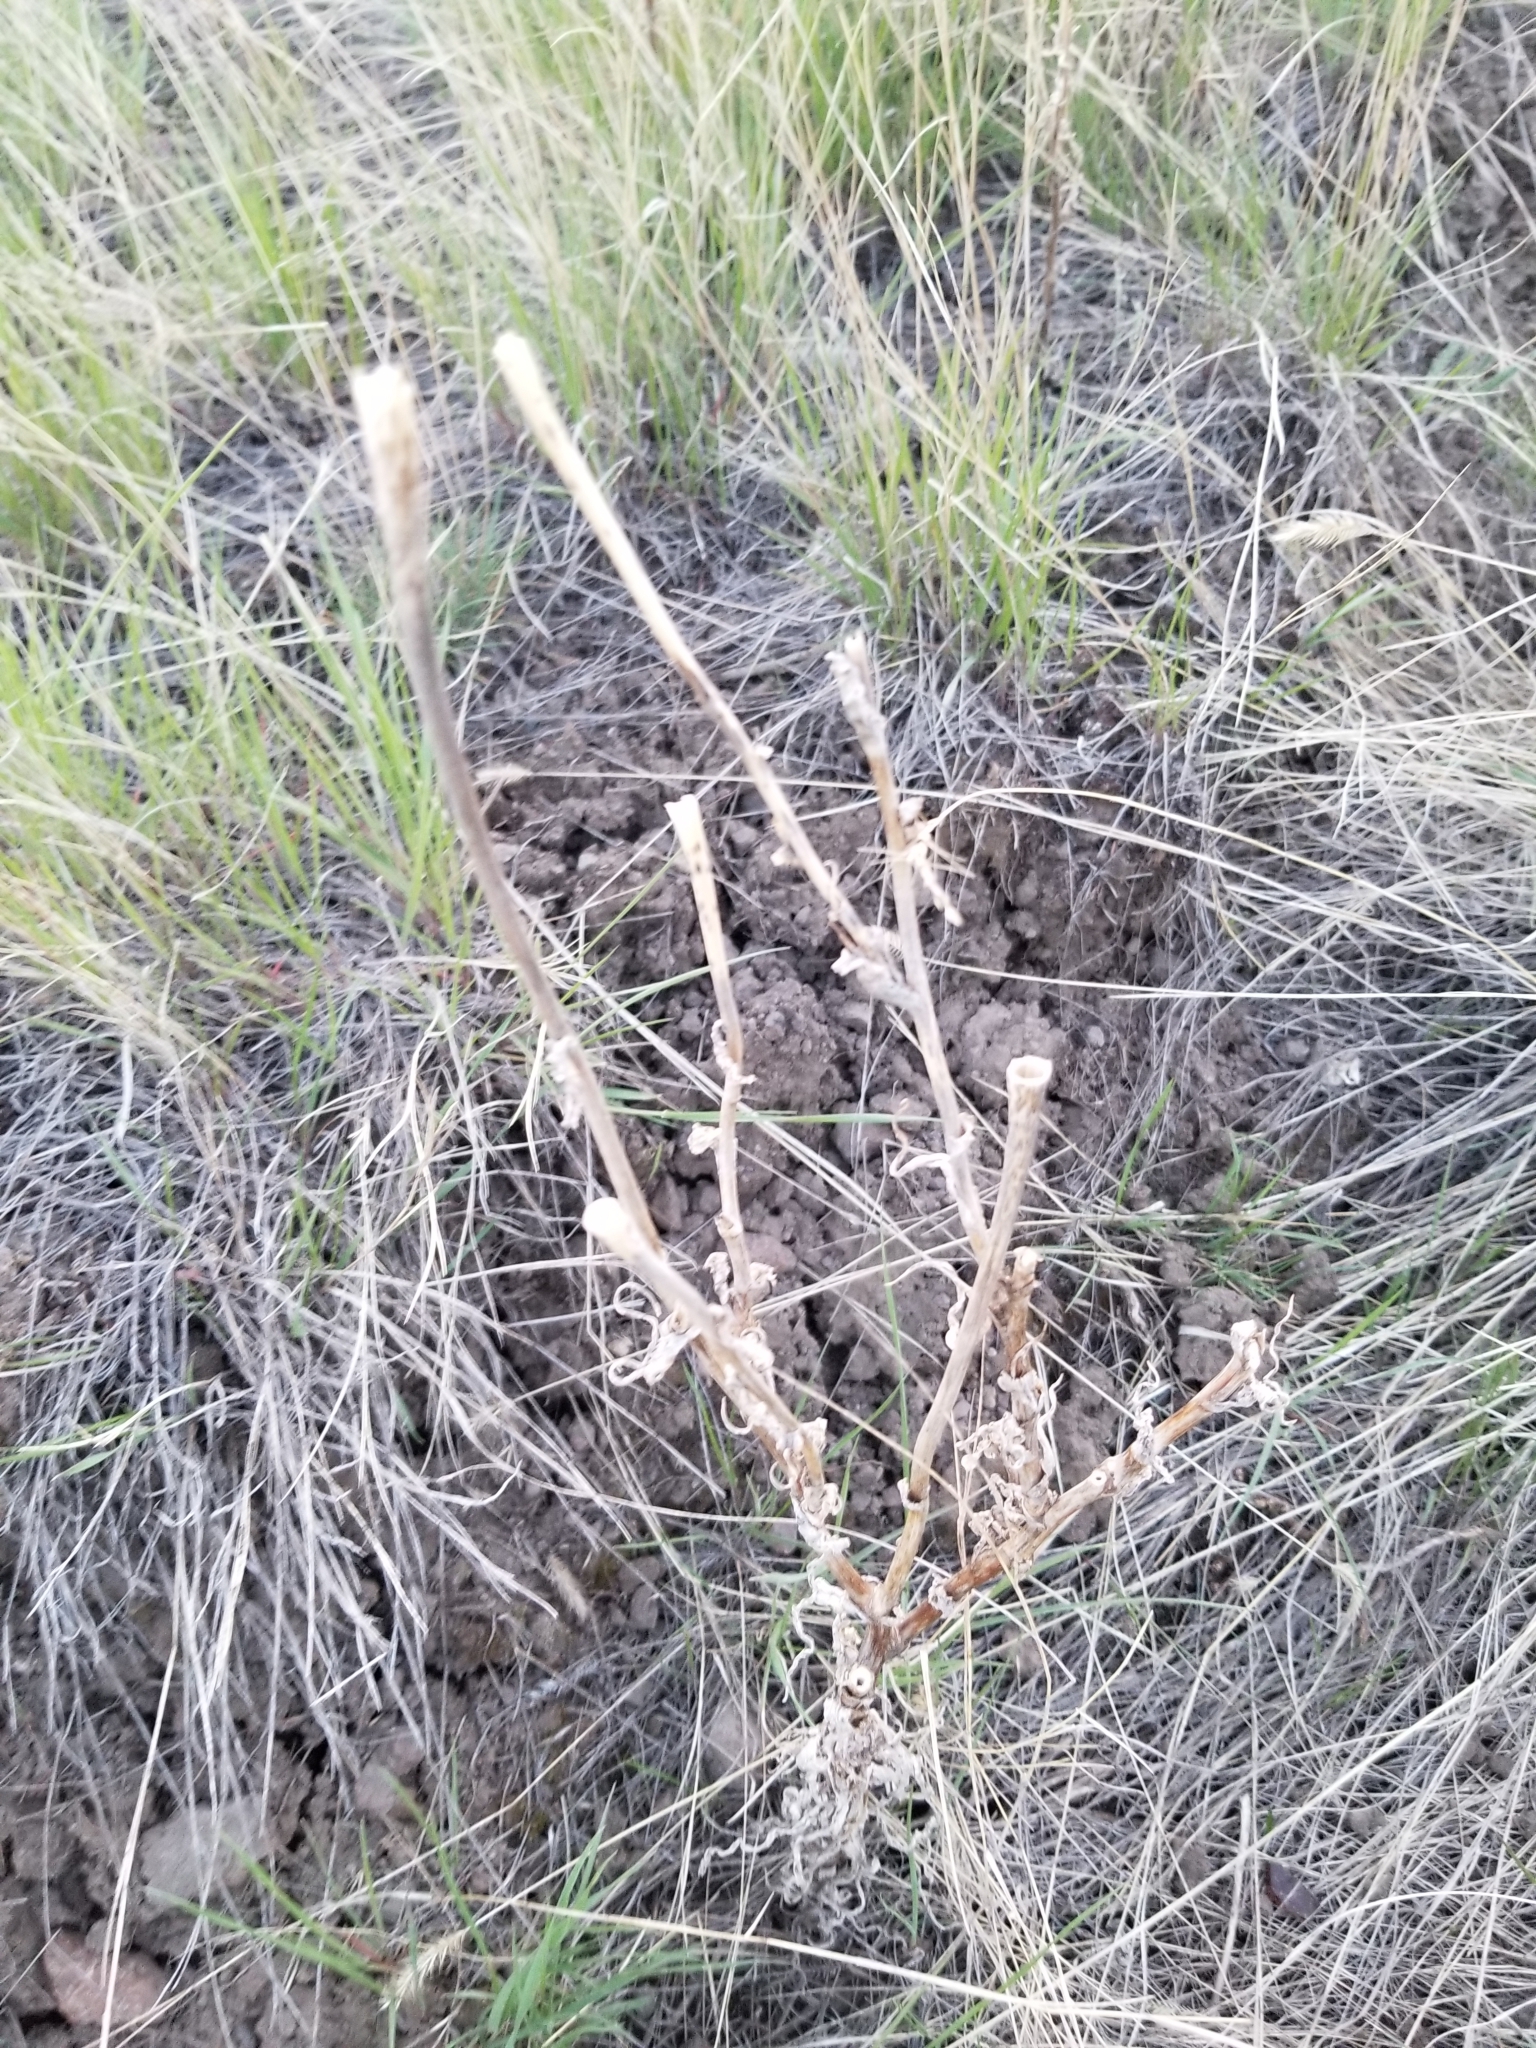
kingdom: Plantae
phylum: Tracheophyta
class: Magnoliopsida
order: Asterales
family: Asteraceae
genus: Tragopogon
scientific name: Tragopogon dubius
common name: Yellow salsify
